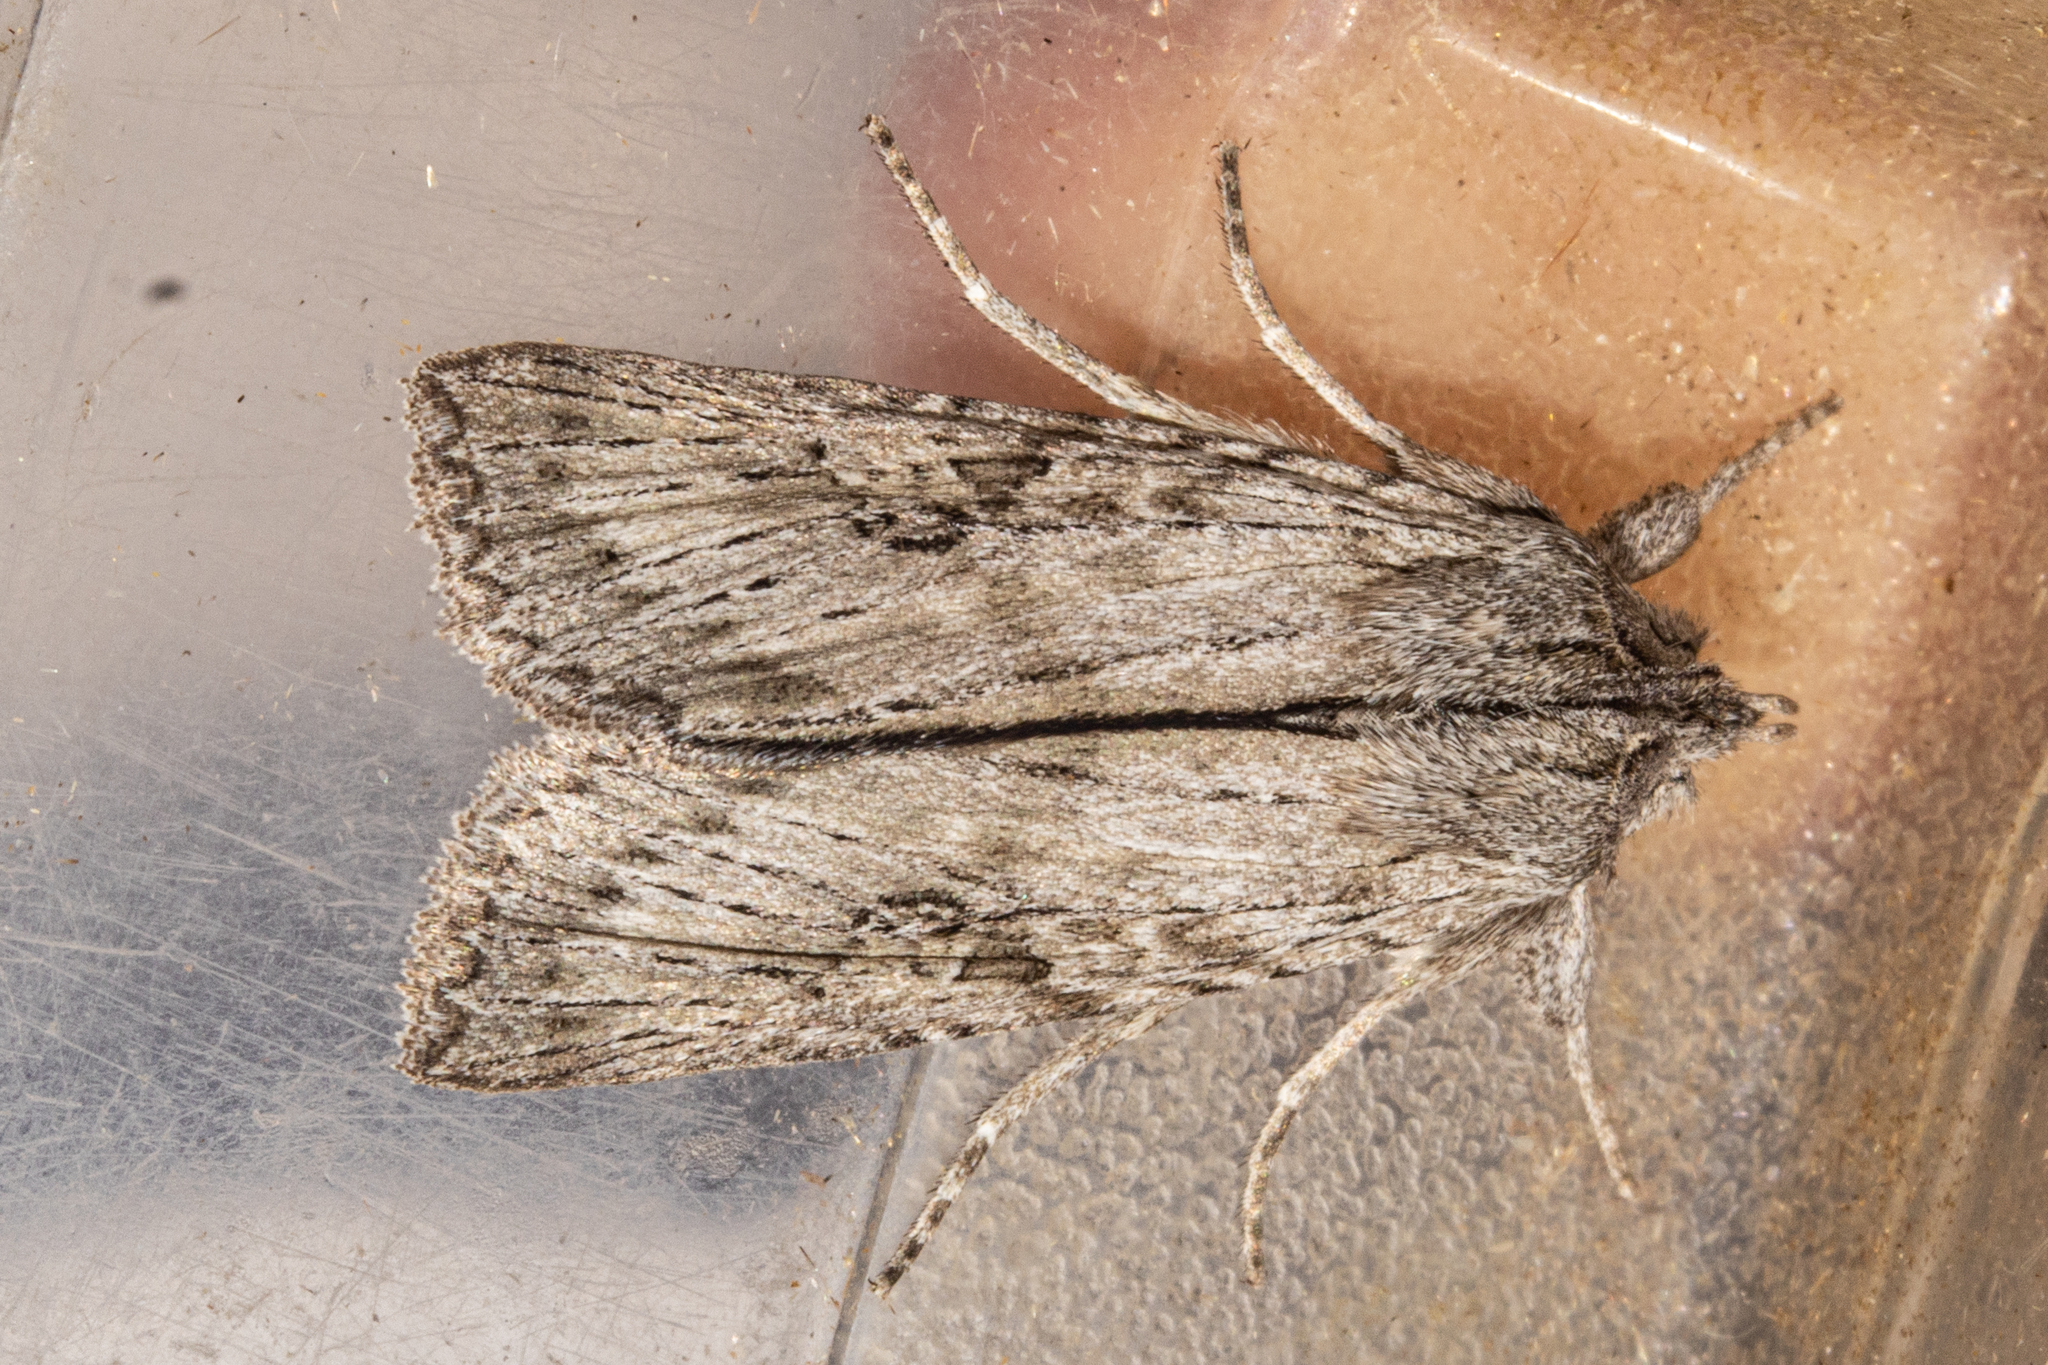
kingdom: Animalia
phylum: Arthropoda
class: Insecta
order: Lepidoptera
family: Noctuidae
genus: Physetica
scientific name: Physetica phricias
